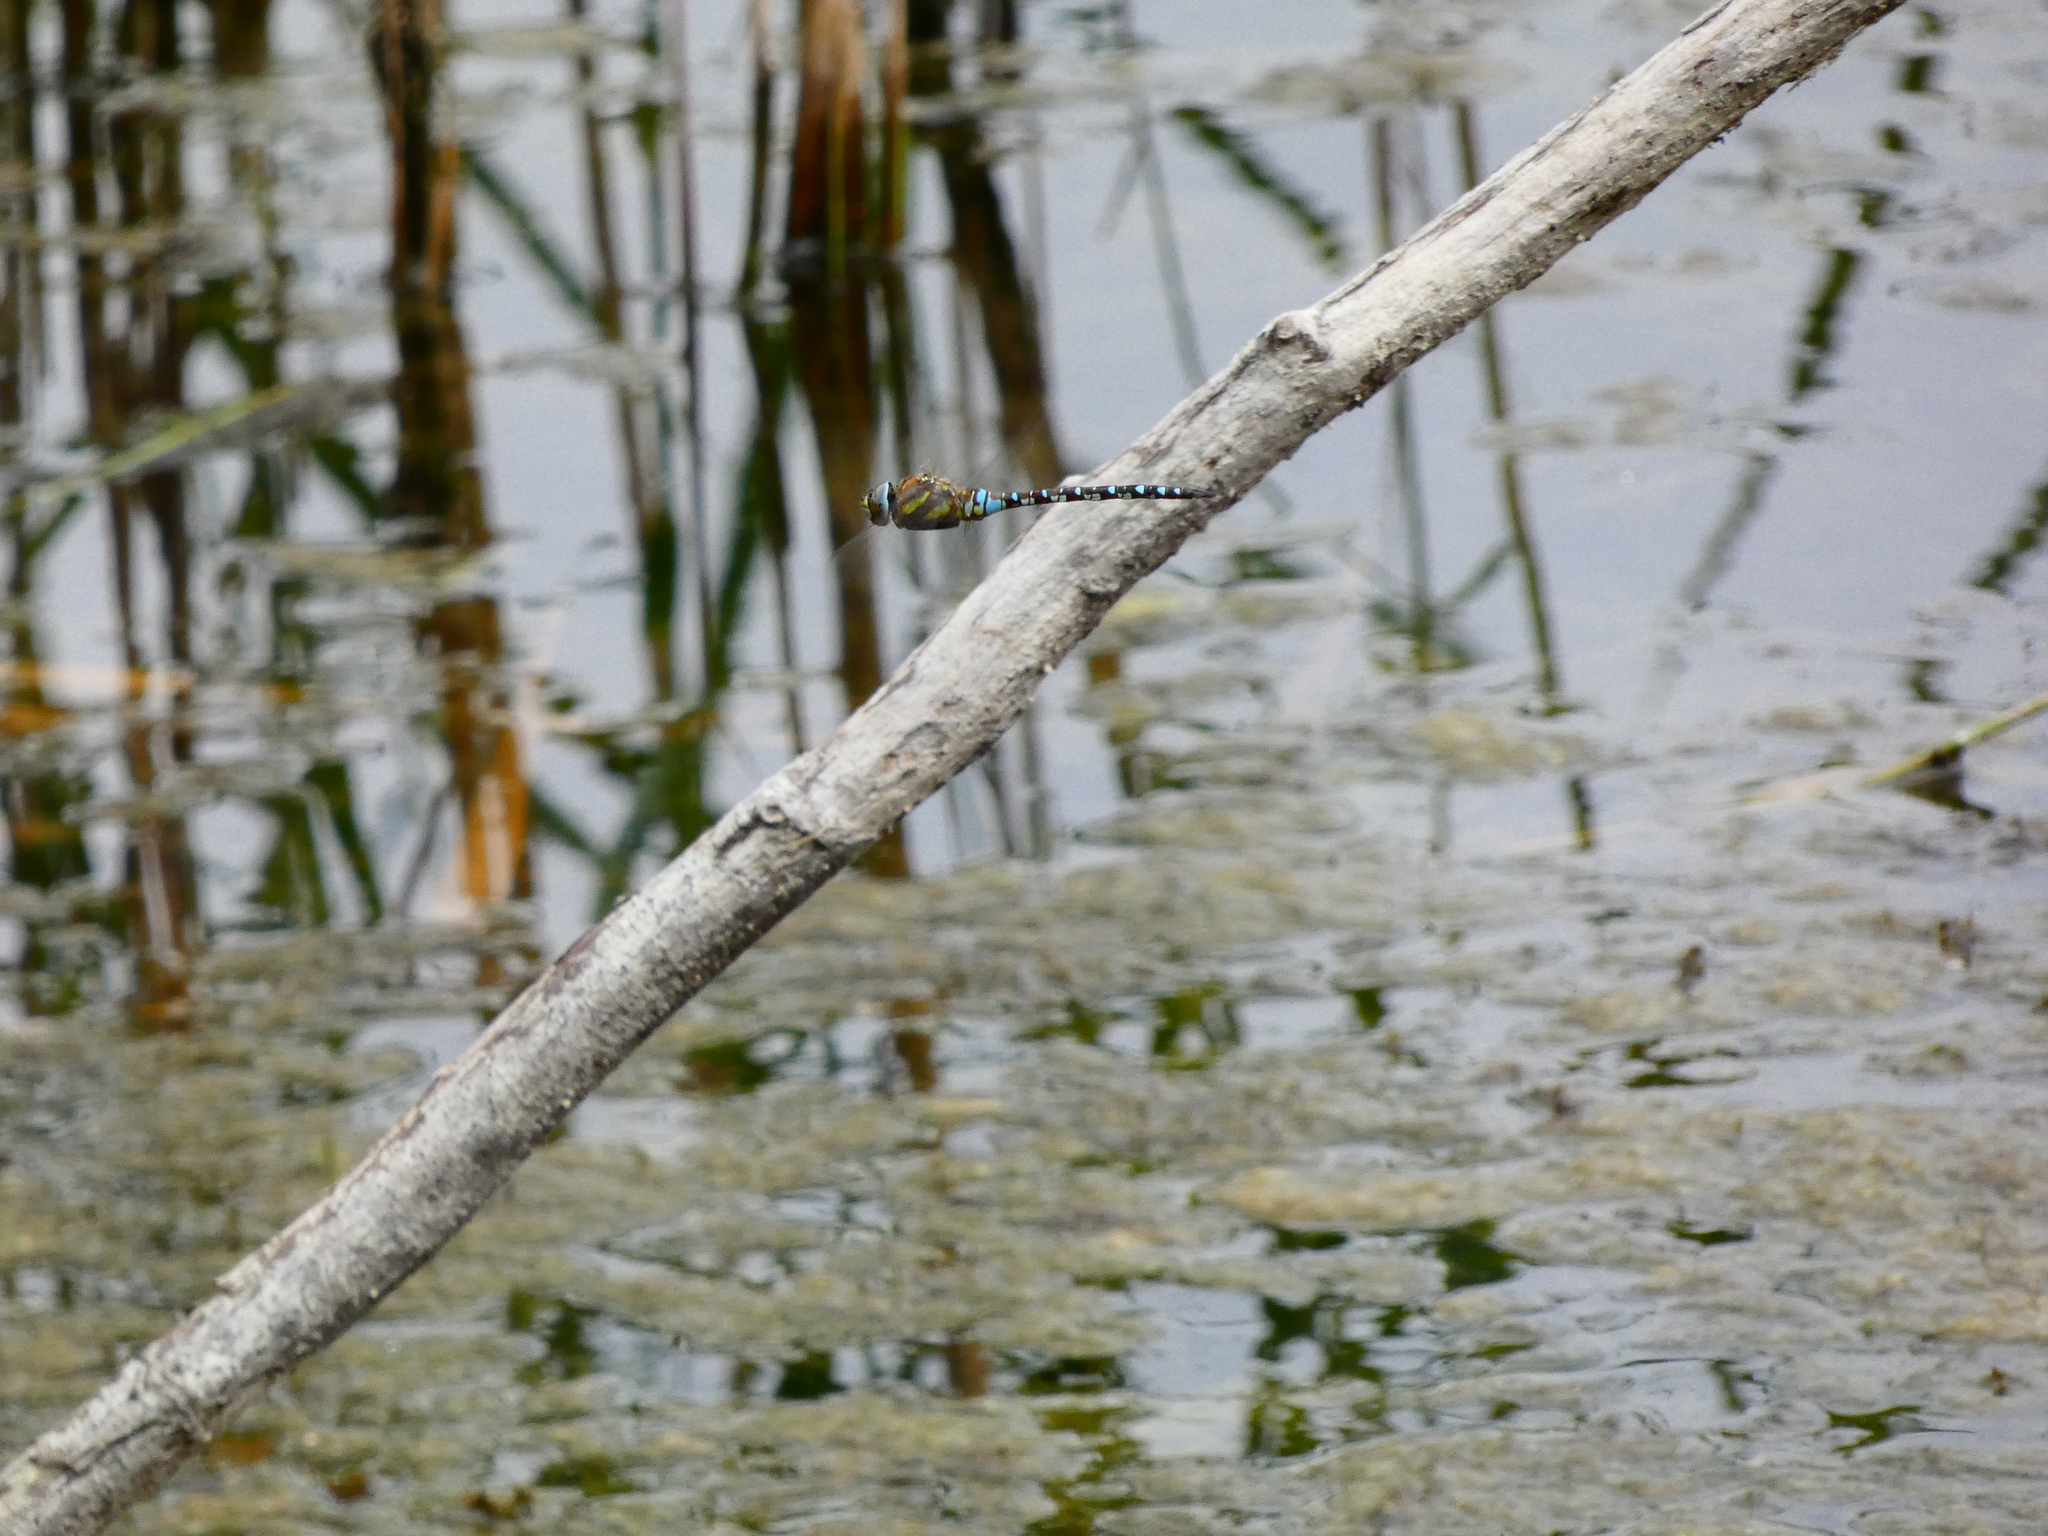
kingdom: Animalia
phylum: Arthropoda
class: Insecta
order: Odonata
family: Aeshnidae
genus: Aeshna
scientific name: Aeshna mixta
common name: Migrant hawker
